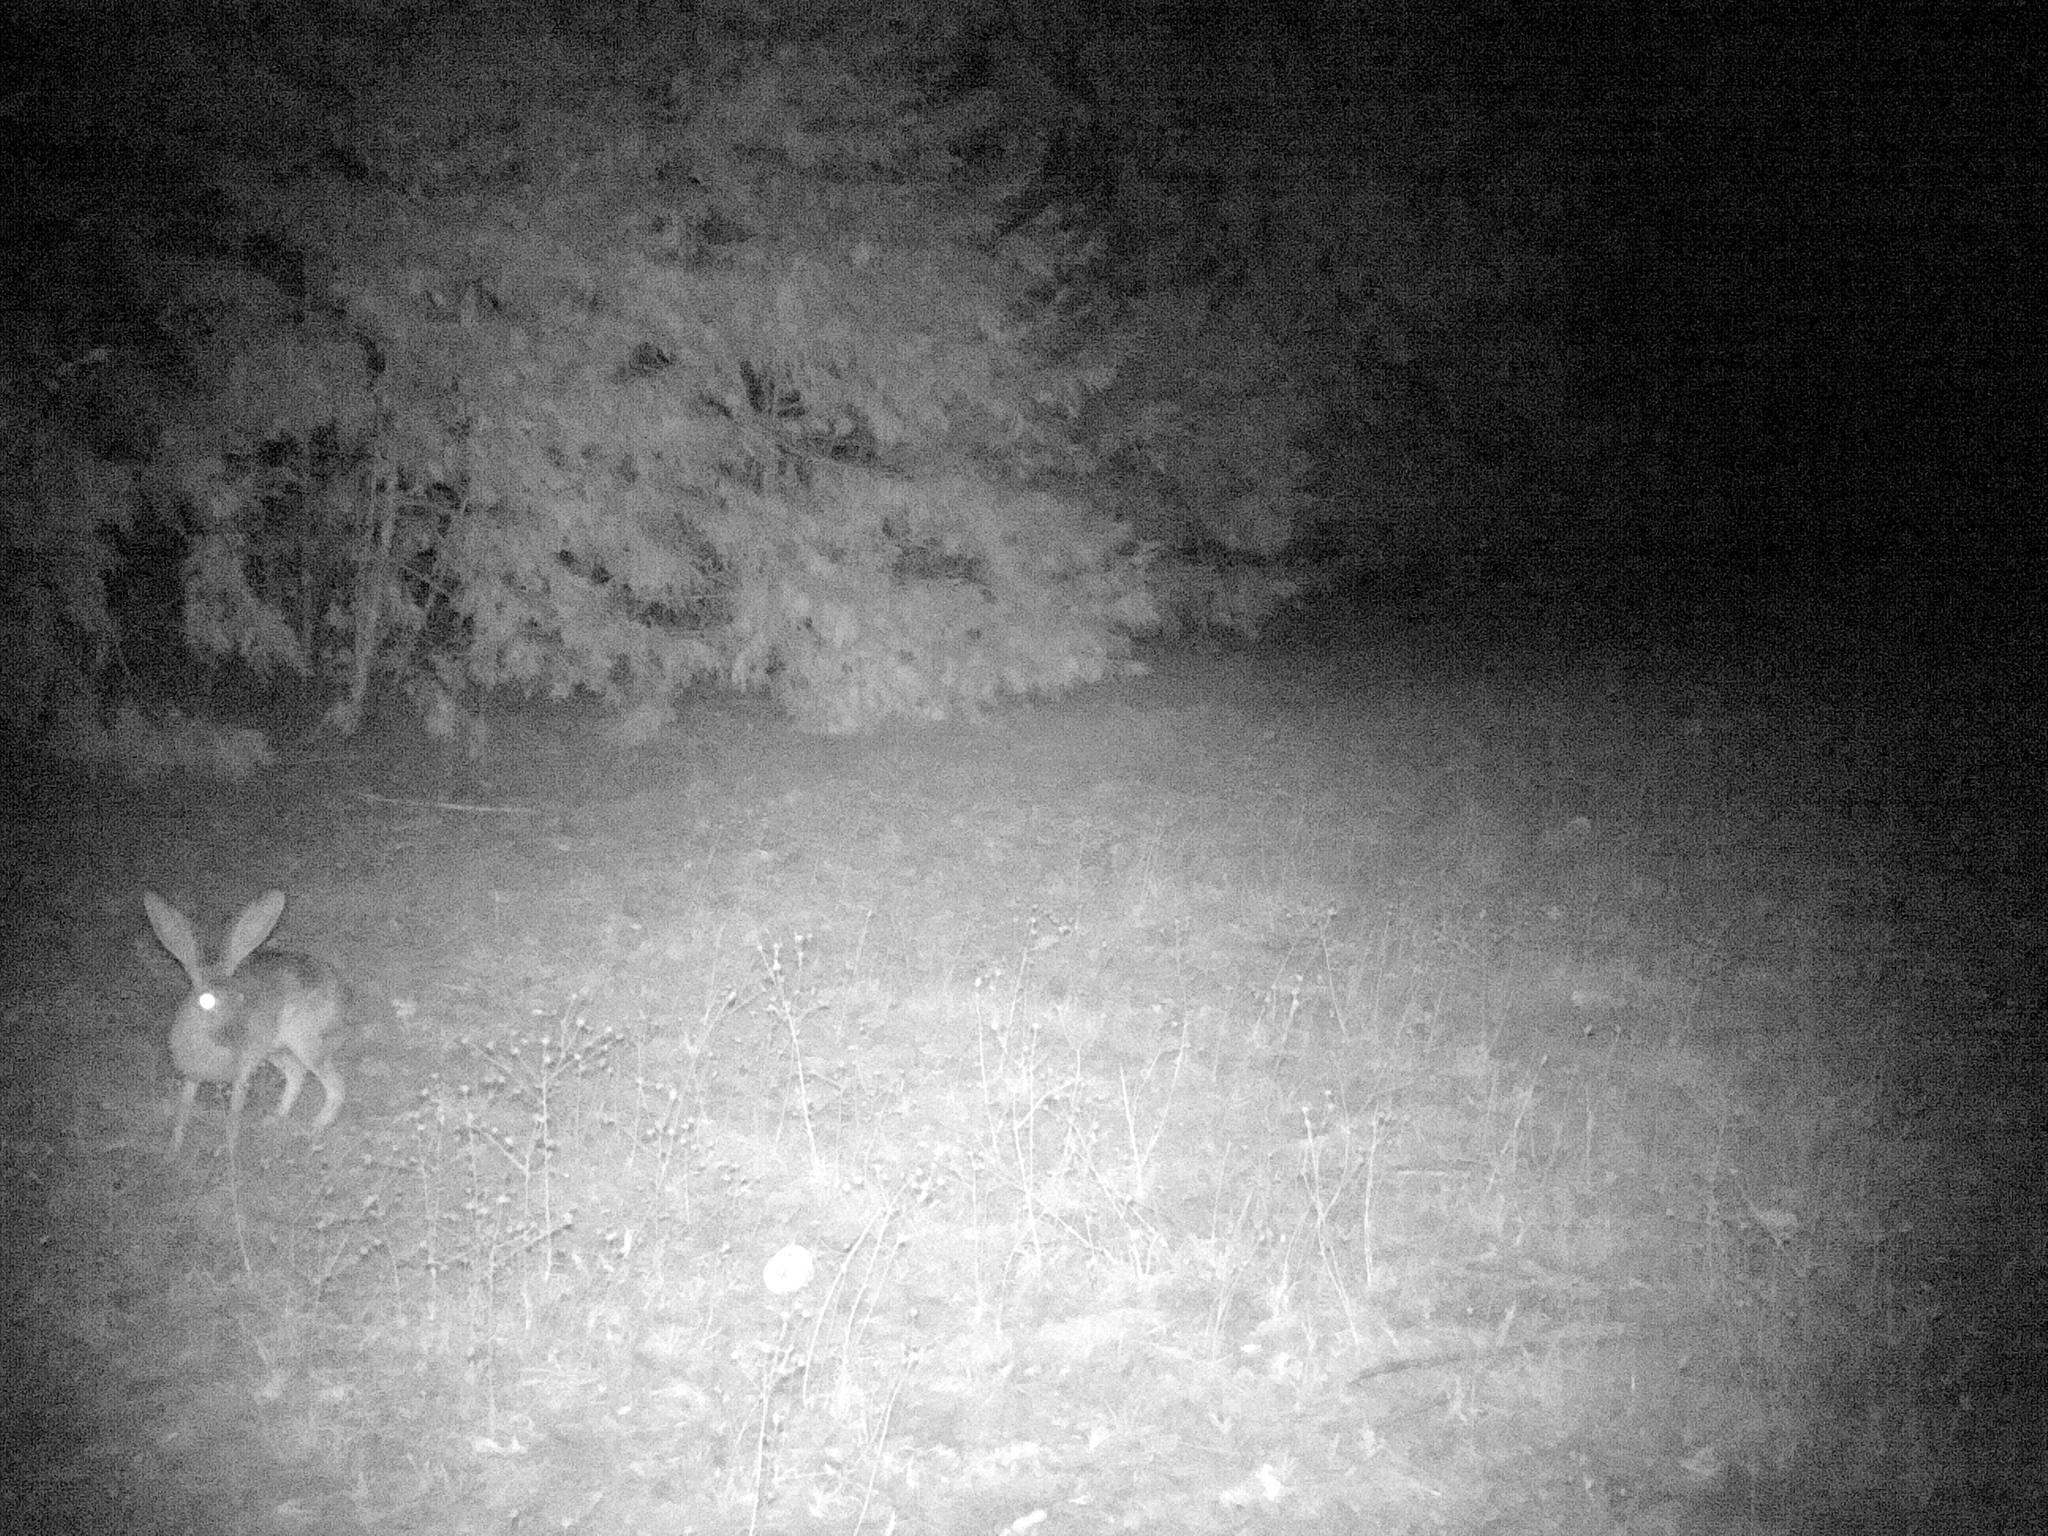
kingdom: Animalia
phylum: Chordata
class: Mammalia
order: Lagomorpha
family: Leporidae
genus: Lepus
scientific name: Lepus californicus
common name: Black-tailed jackrabbit
